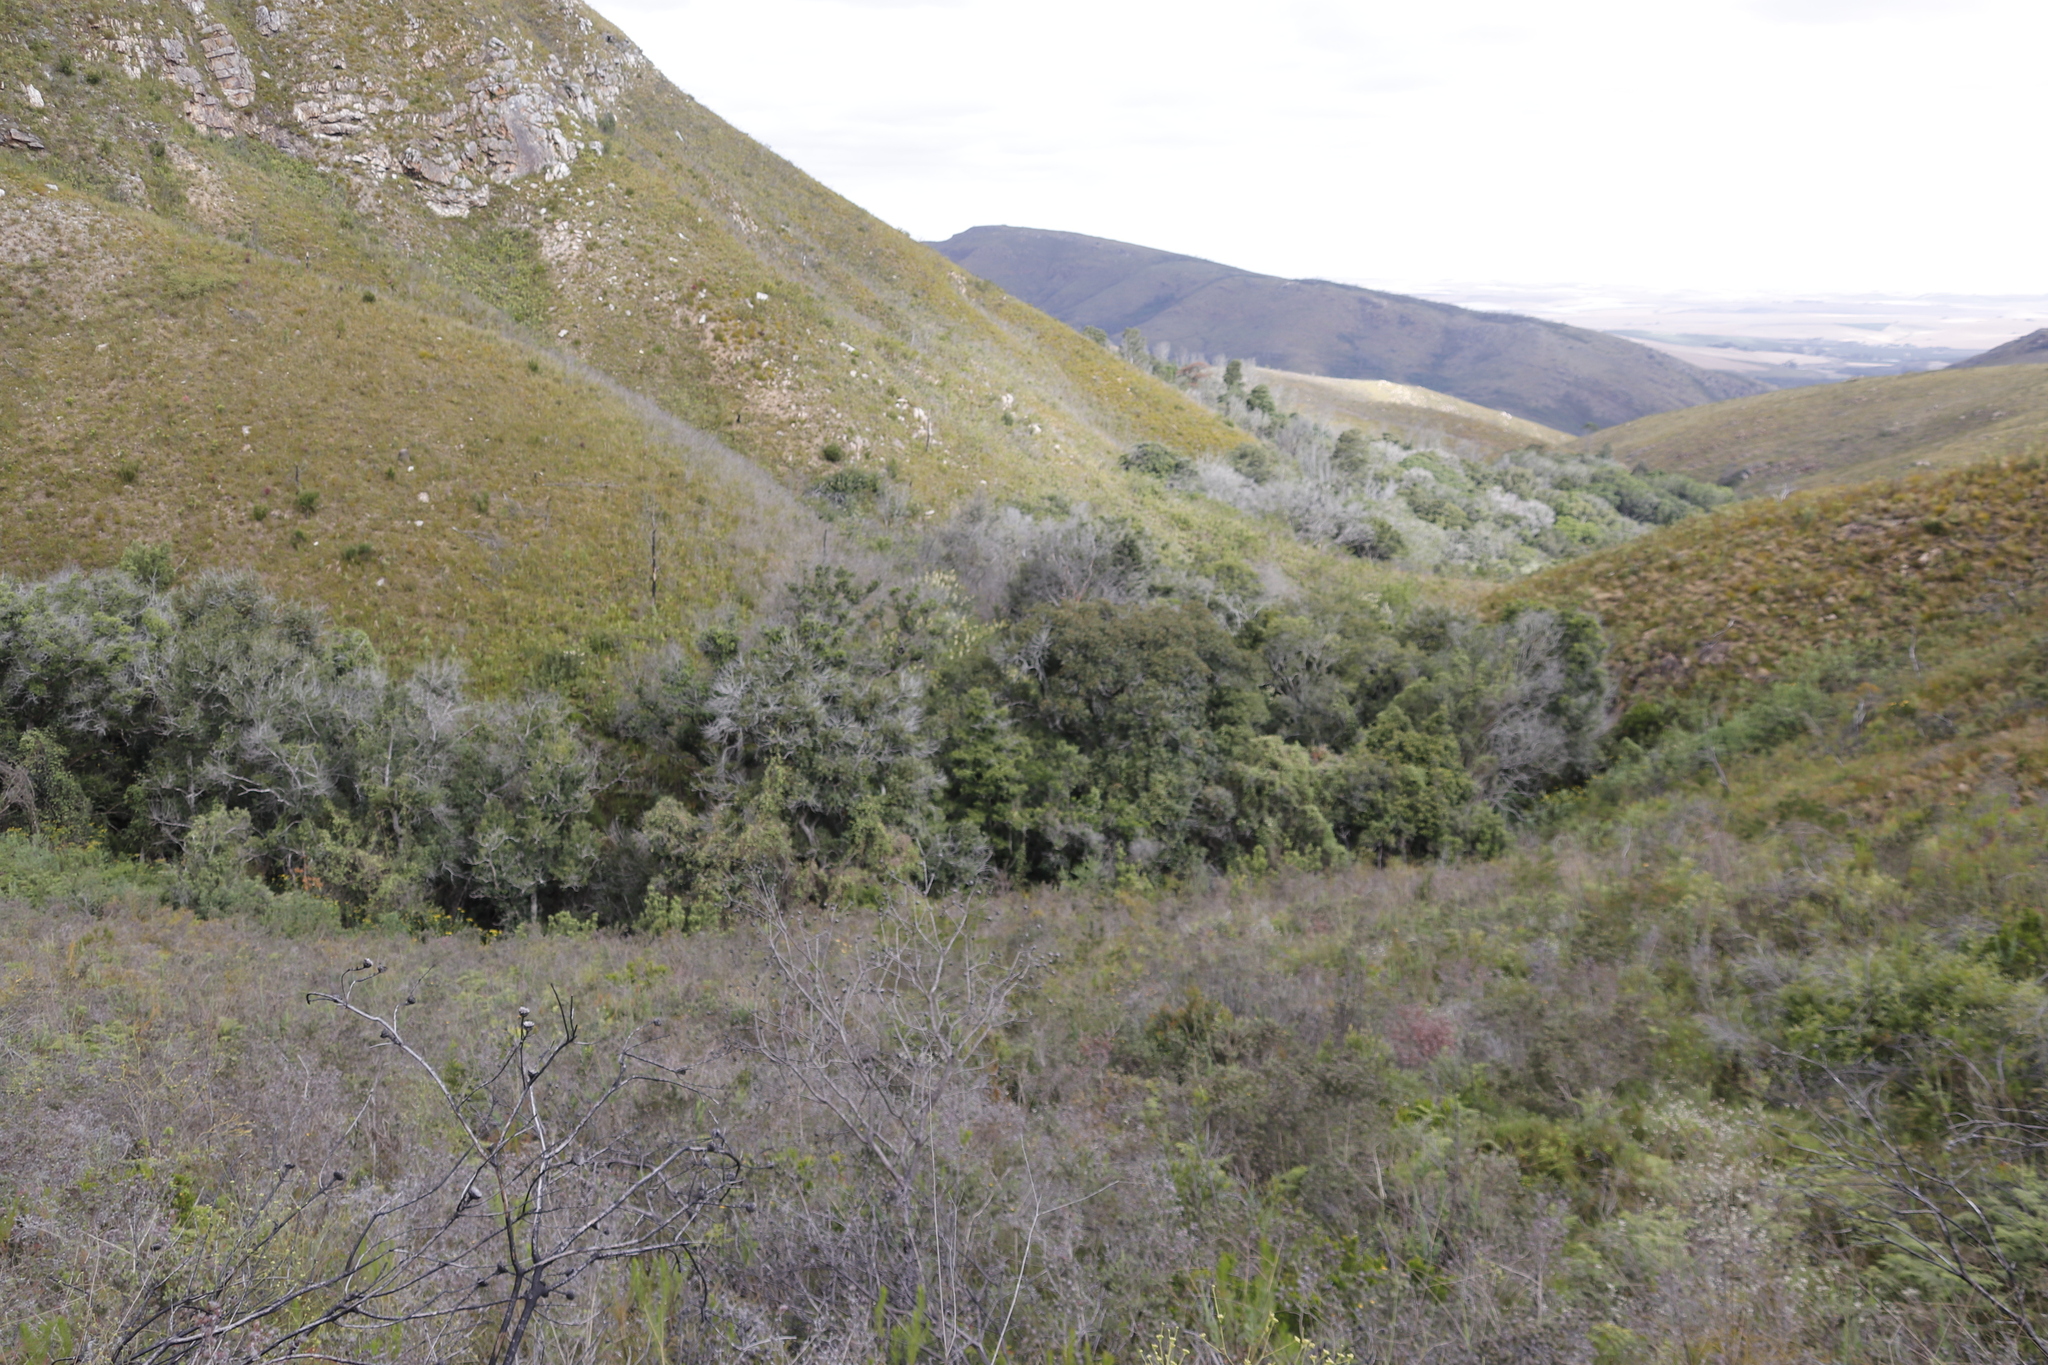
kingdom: Plantae
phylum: Tracheophyta
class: Magnoliopsida
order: Proteales
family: Proteaceae
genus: Brabejum
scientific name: Brabejum stellatifolium
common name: Wild almond
